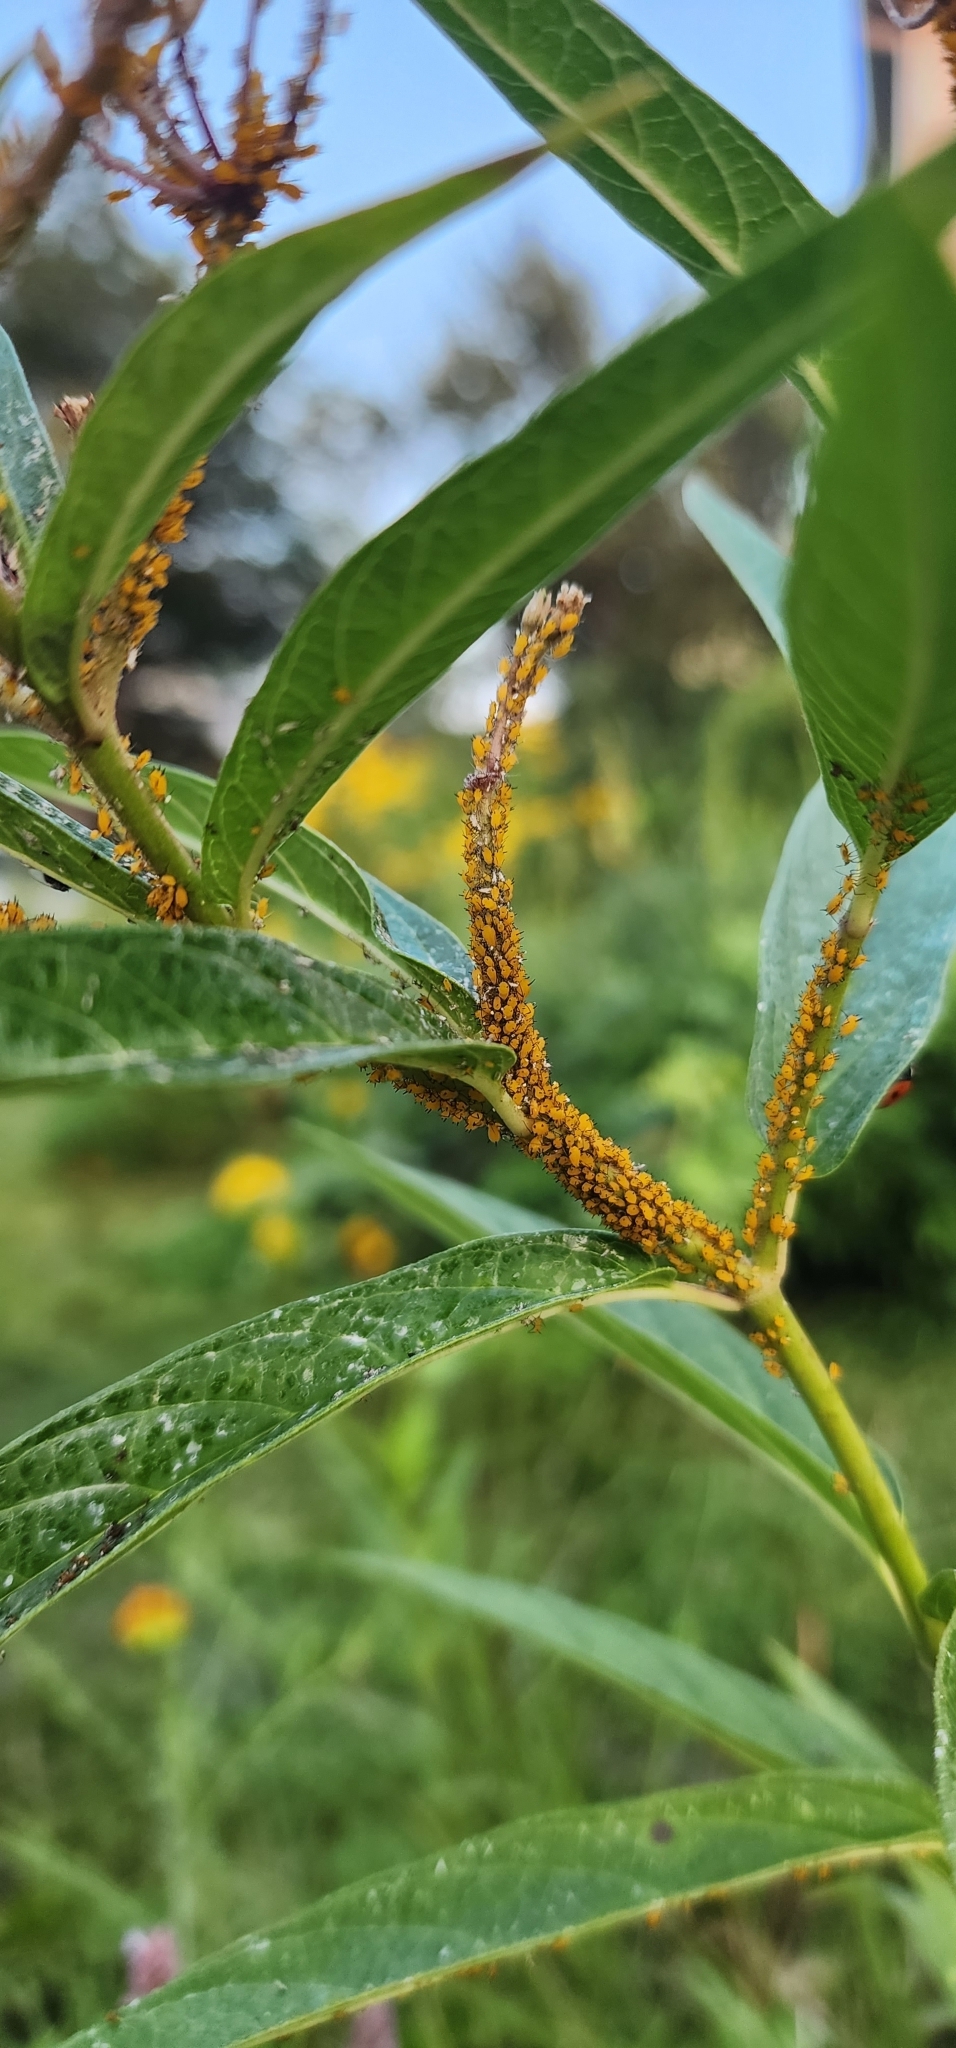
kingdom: Animalia
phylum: Arthropoda
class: Insecta
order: Hemiptera
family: Aphididae
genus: Aphis
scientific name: Aphis nerii
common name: Oleander aphid
